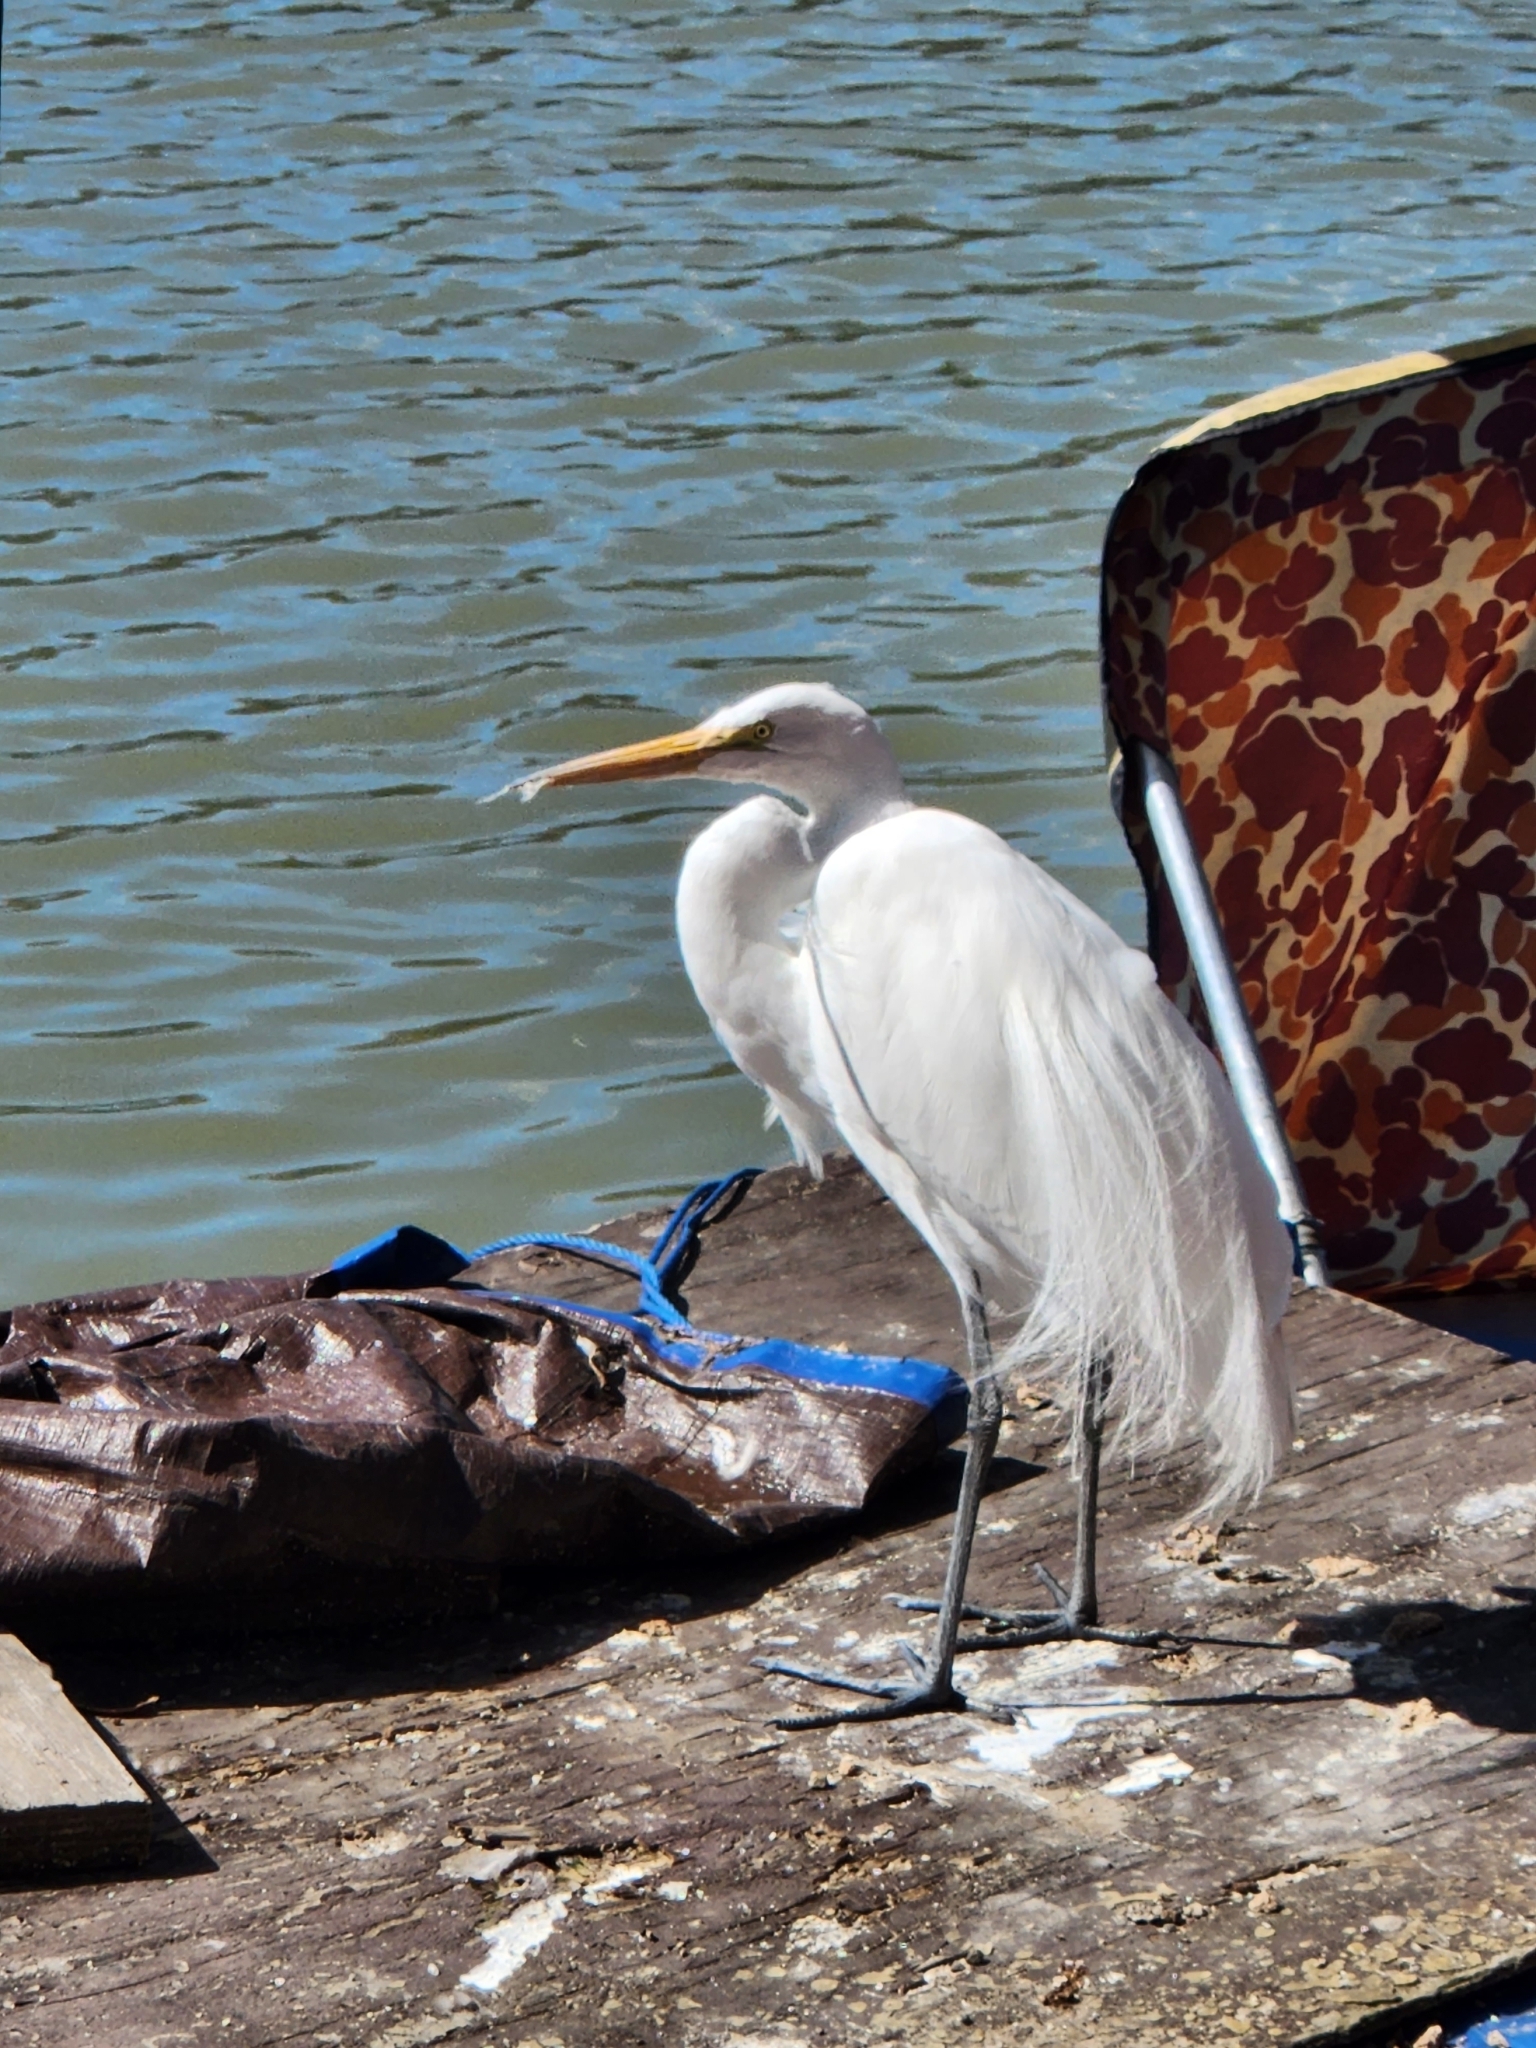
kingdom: Animalia
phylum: Chordata
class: Aves
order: Pelecaniformes
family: Ardeidae
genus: Ardea
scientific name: Ardea alba
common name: Great egret
